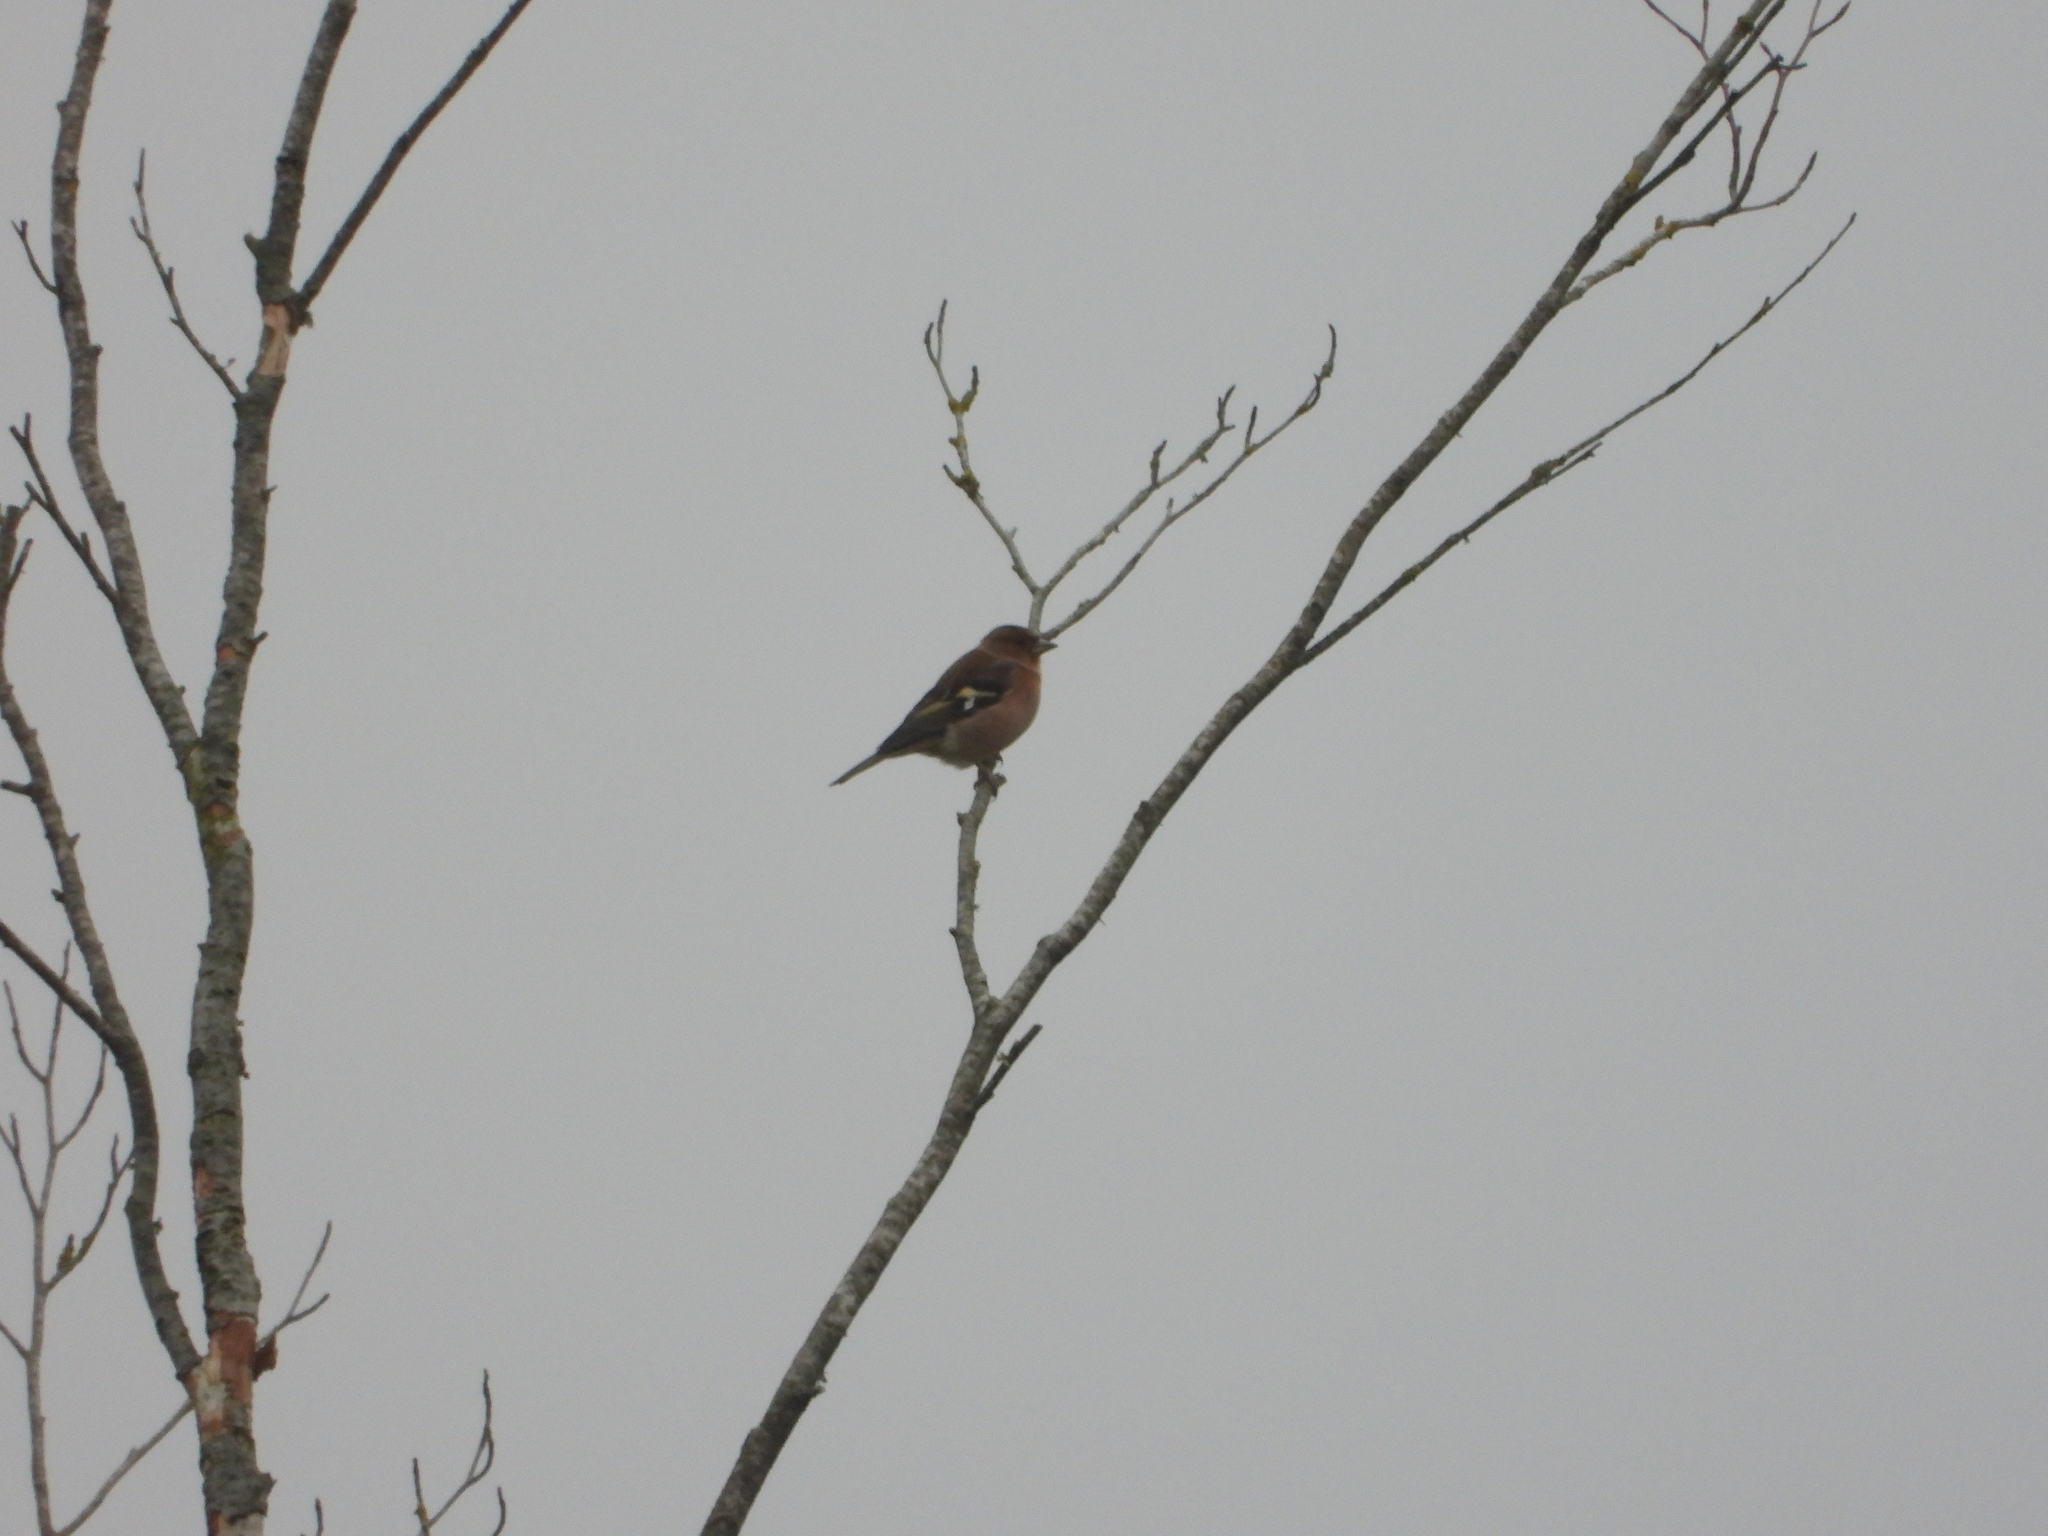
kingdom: Animalia
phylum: Chordata
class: Aves
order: Passeriformes
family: Fringillidae
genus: Fringilla
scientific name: Fringilla coelebs
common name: Common chaffinch
